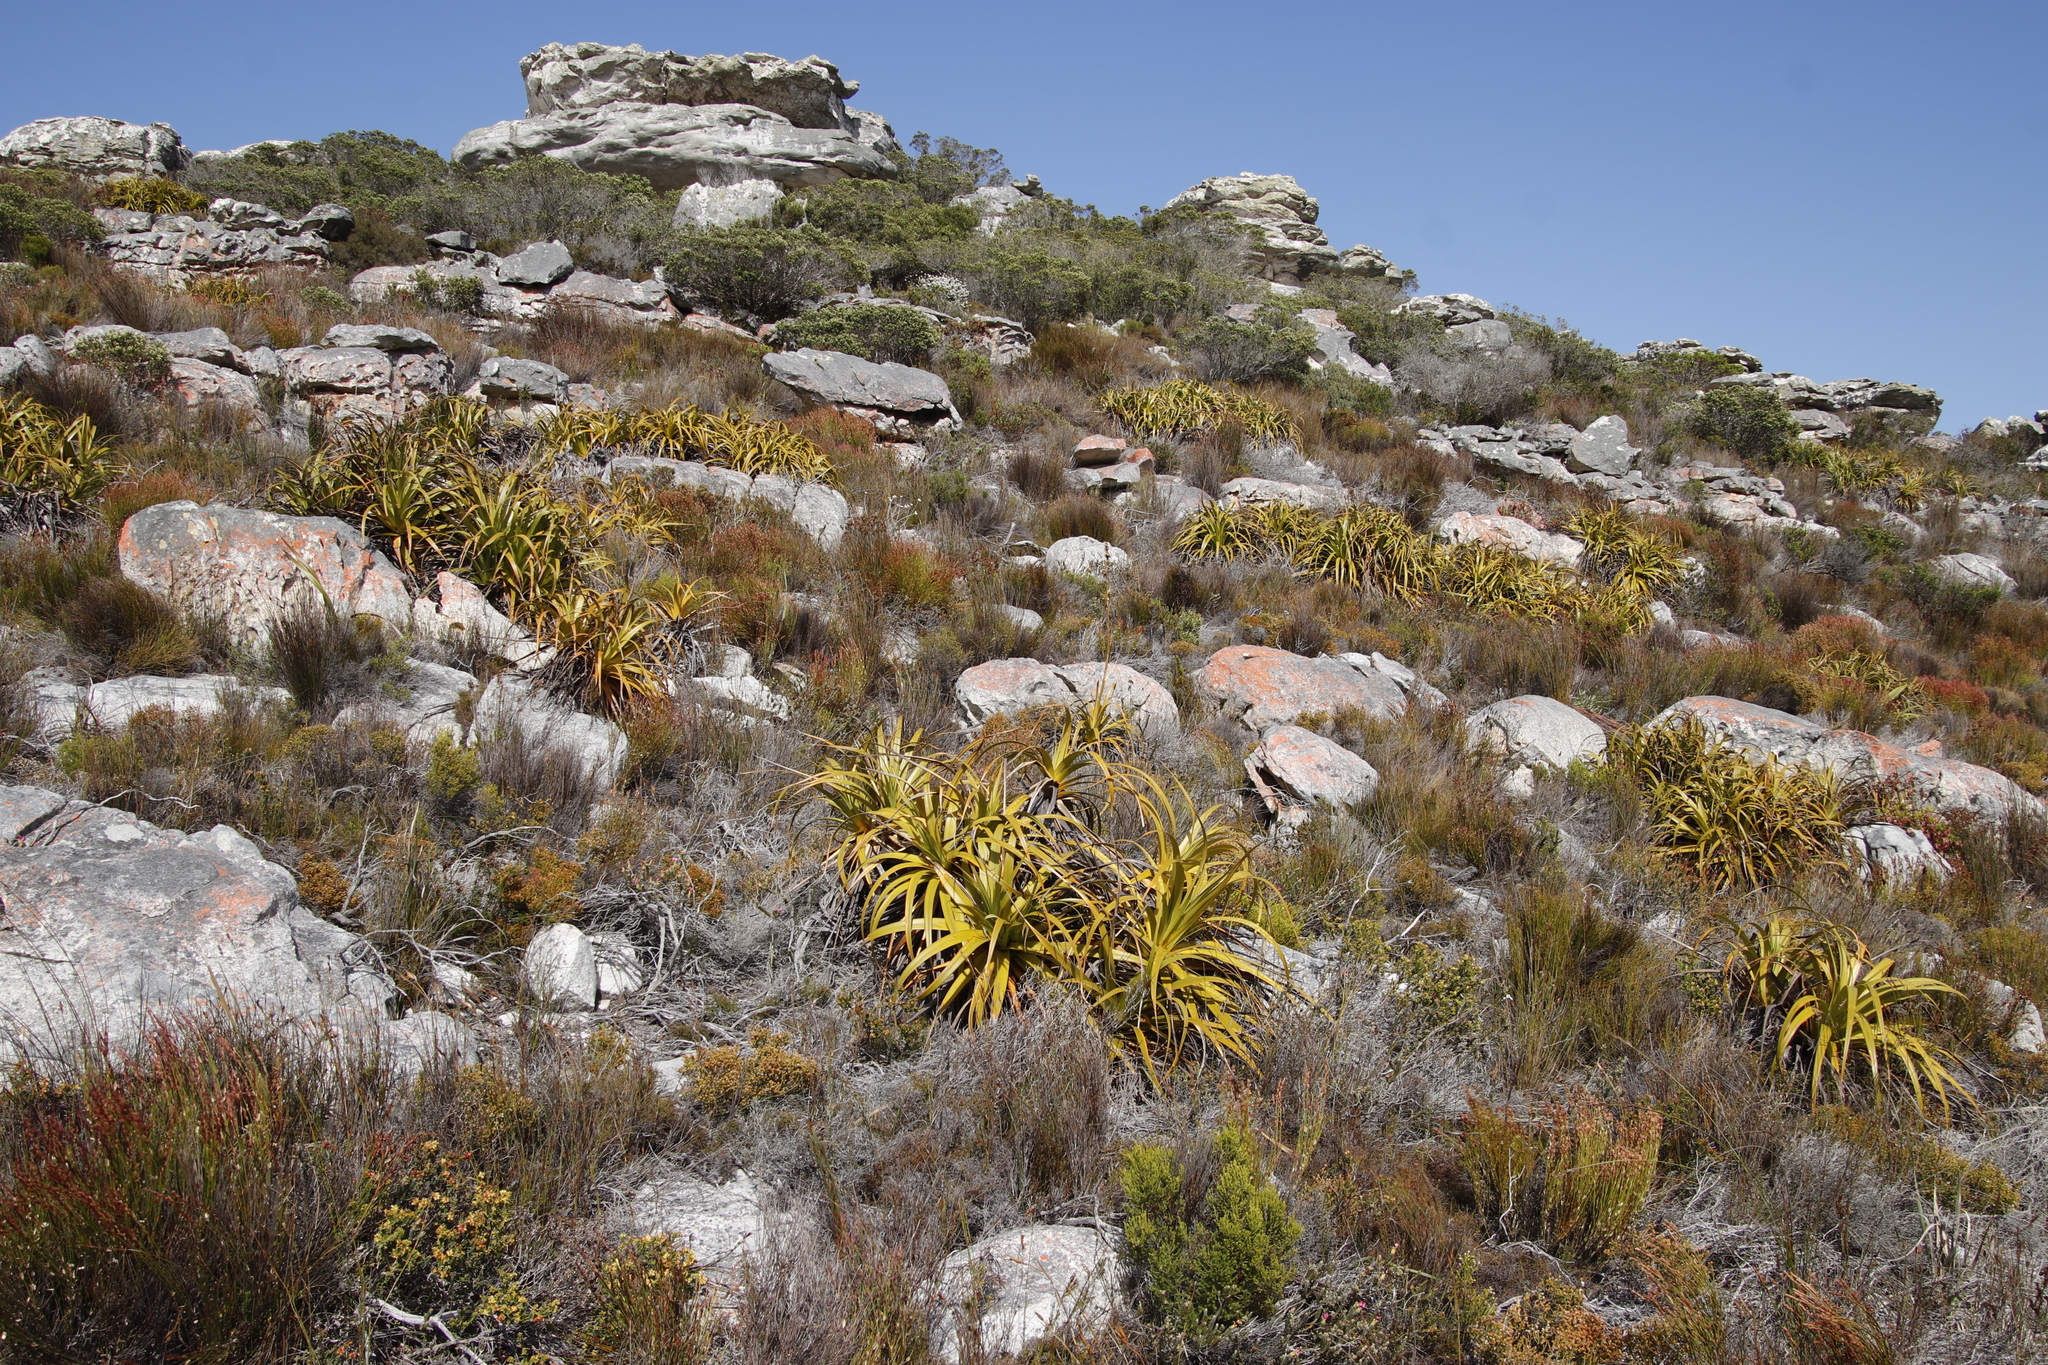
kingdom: Plantae
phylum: Tracheophyta
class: Liliopsida
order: Poales
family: Cyperaceae
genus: Tetraria
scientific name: Tetraria thermalis
